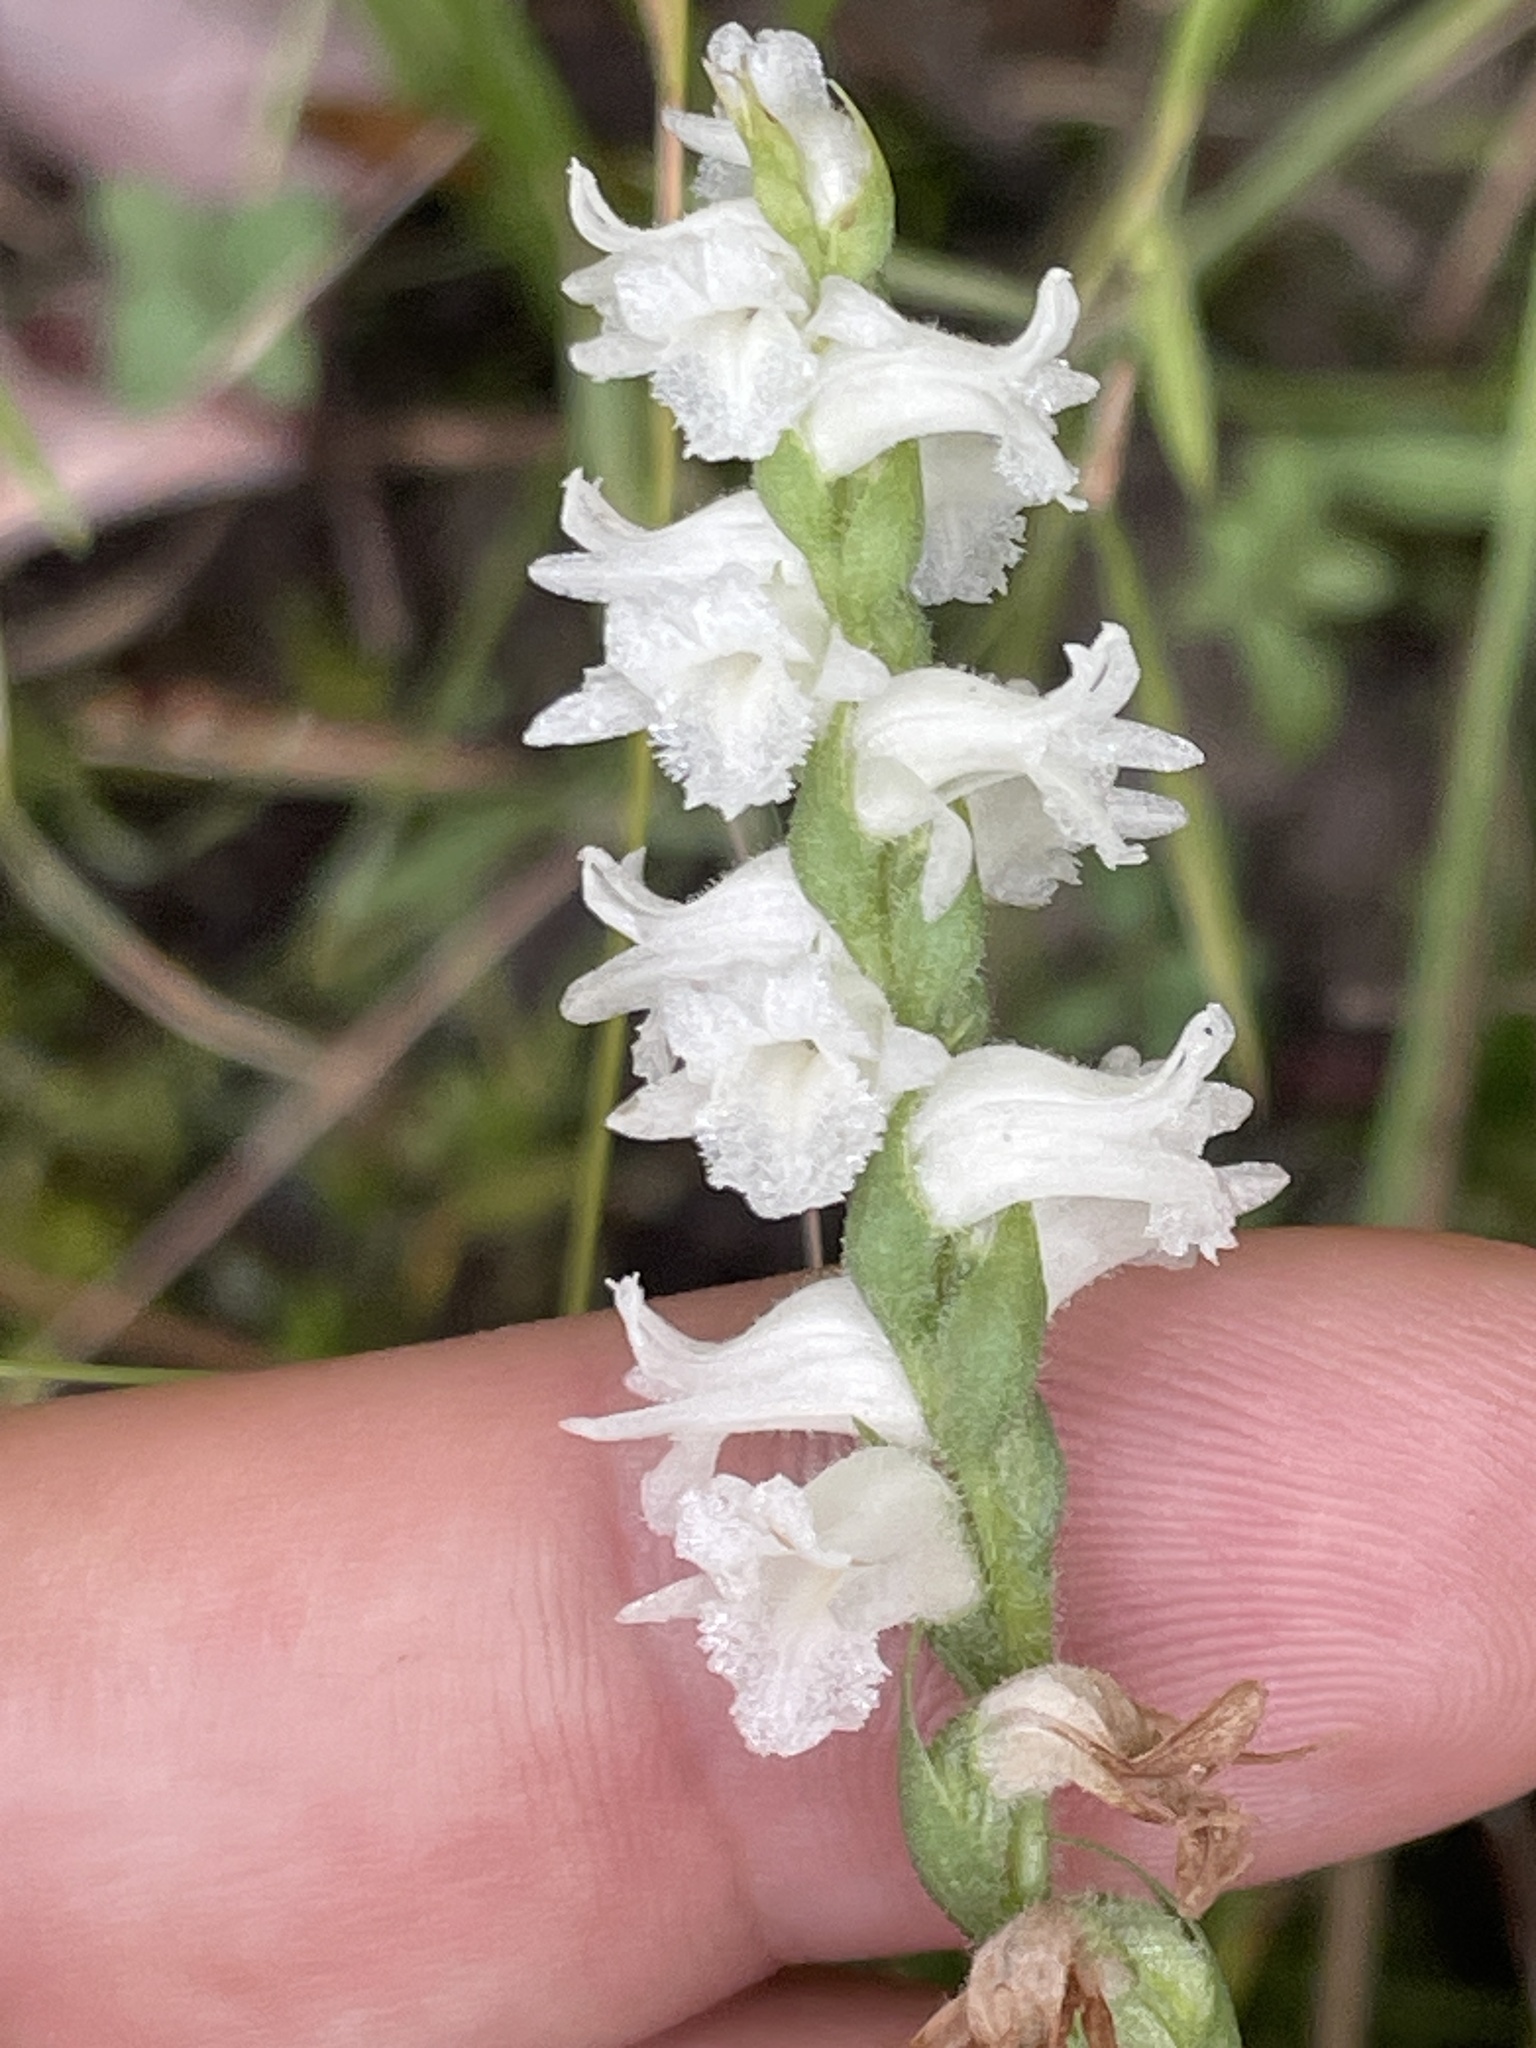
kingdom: Plantae
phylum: Tracheophyta
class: Liliopsida
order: Asparagales
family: Orchidaceae
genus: Spiranthes
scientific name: Spiranthes arcisepala
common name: Appalachian ladies'-tresses
